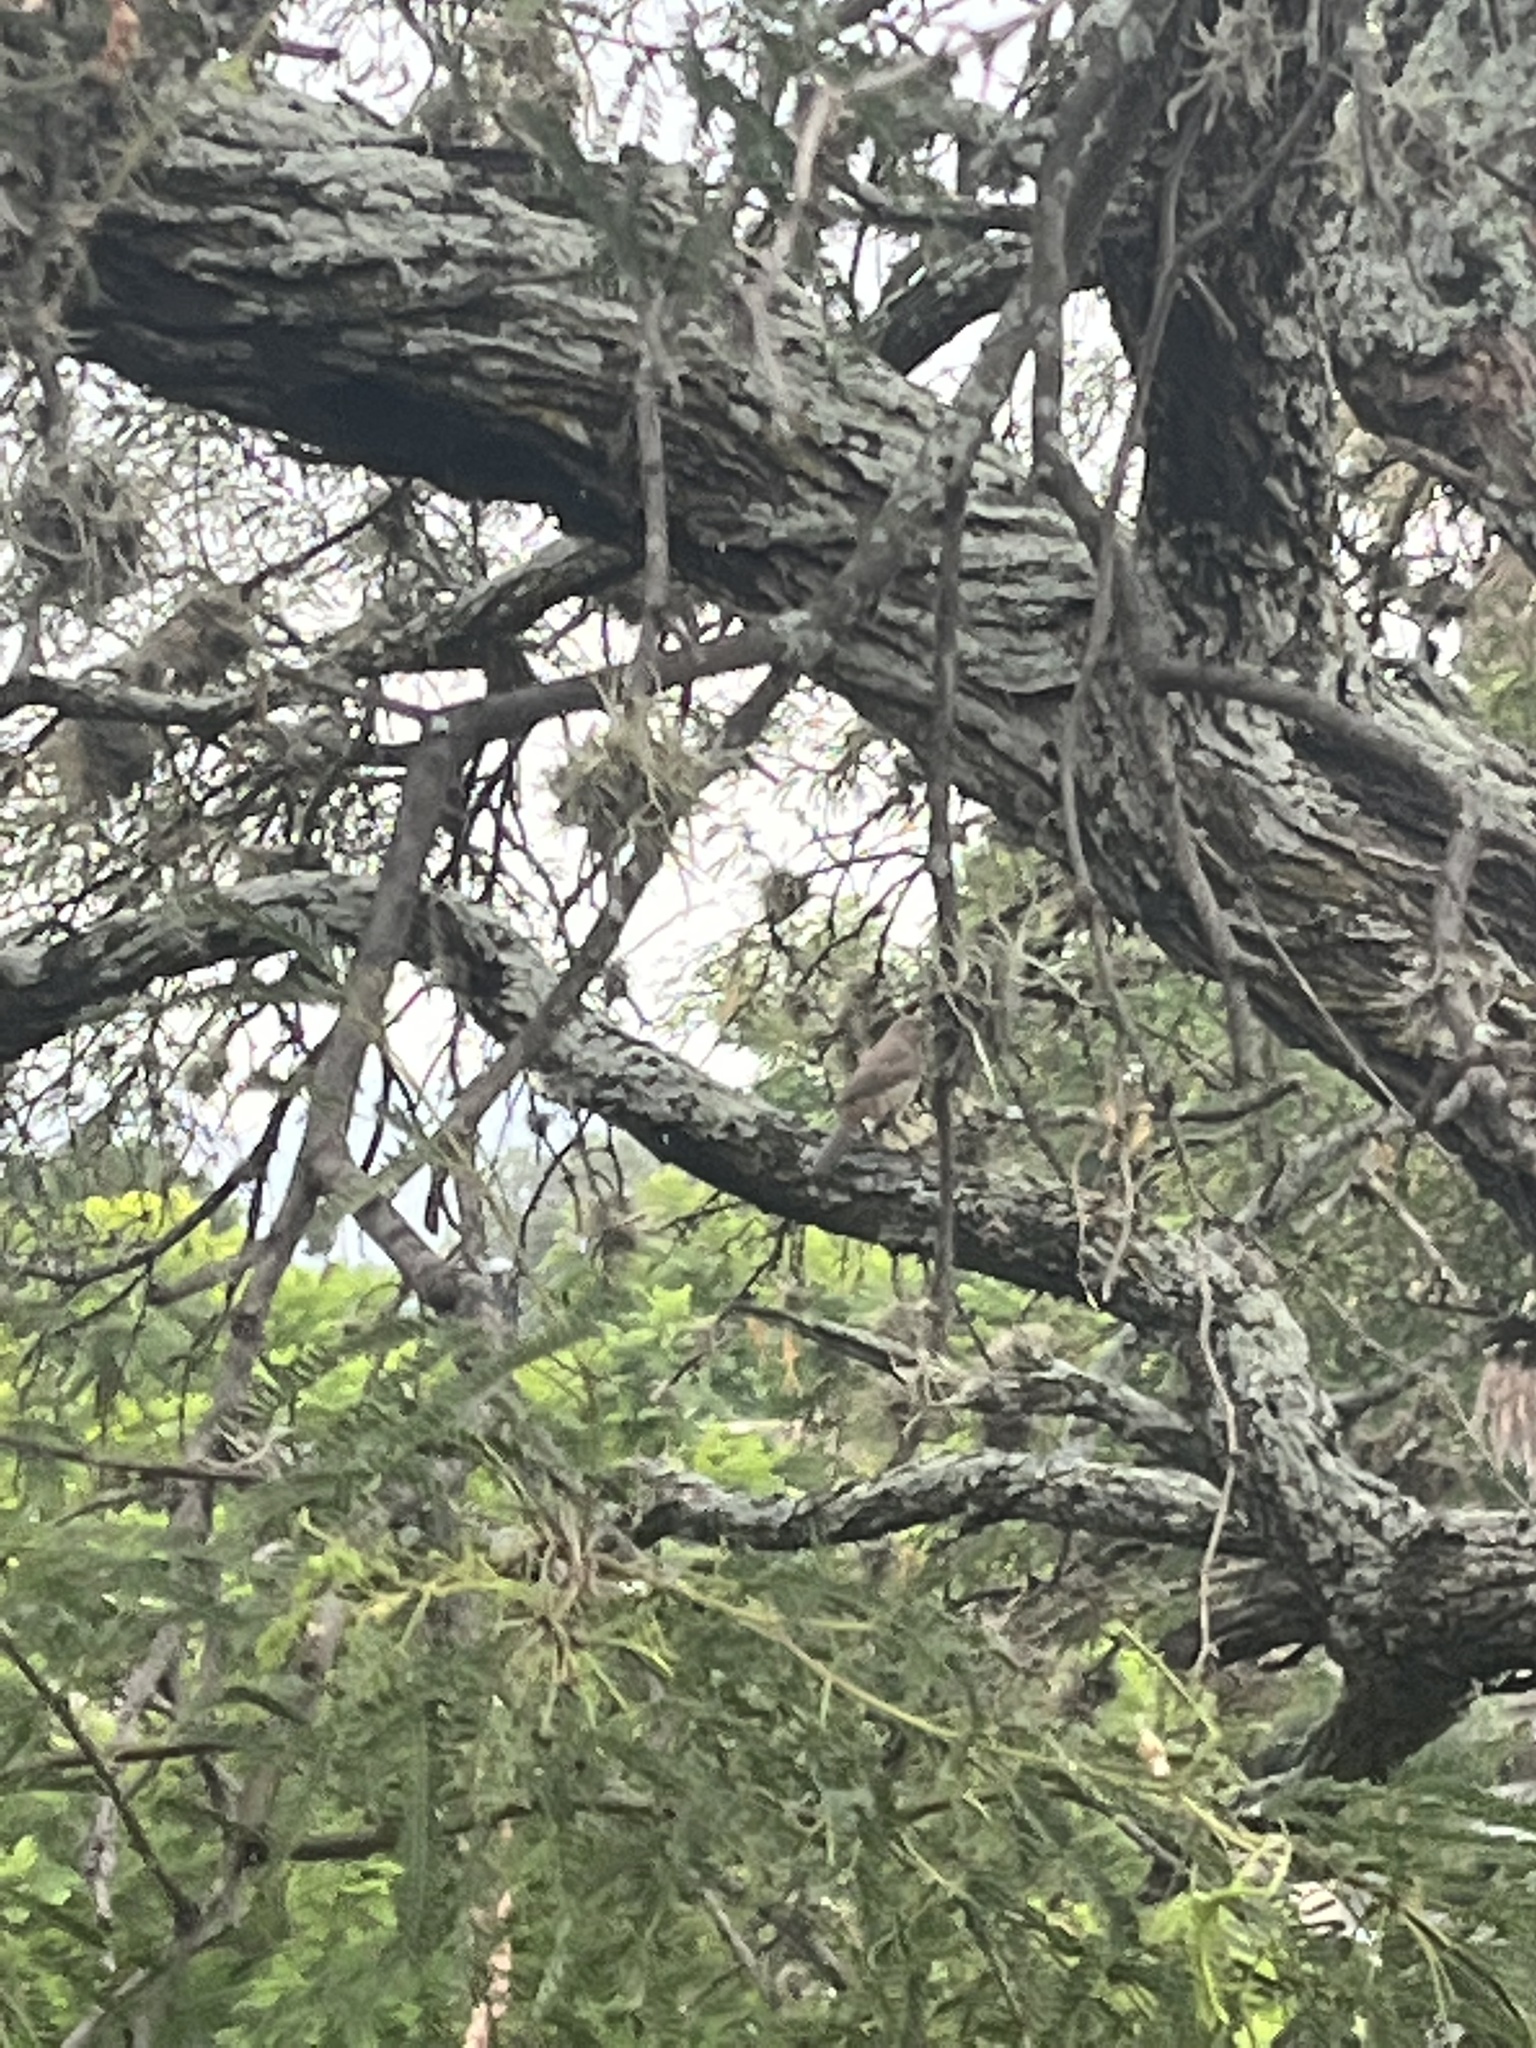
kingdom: Animalia
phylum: Chordata
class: Aves
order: Passeriformes
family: Turdidae
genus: Turdus
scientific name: Turdus grayi
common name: Clay-colored thrush
